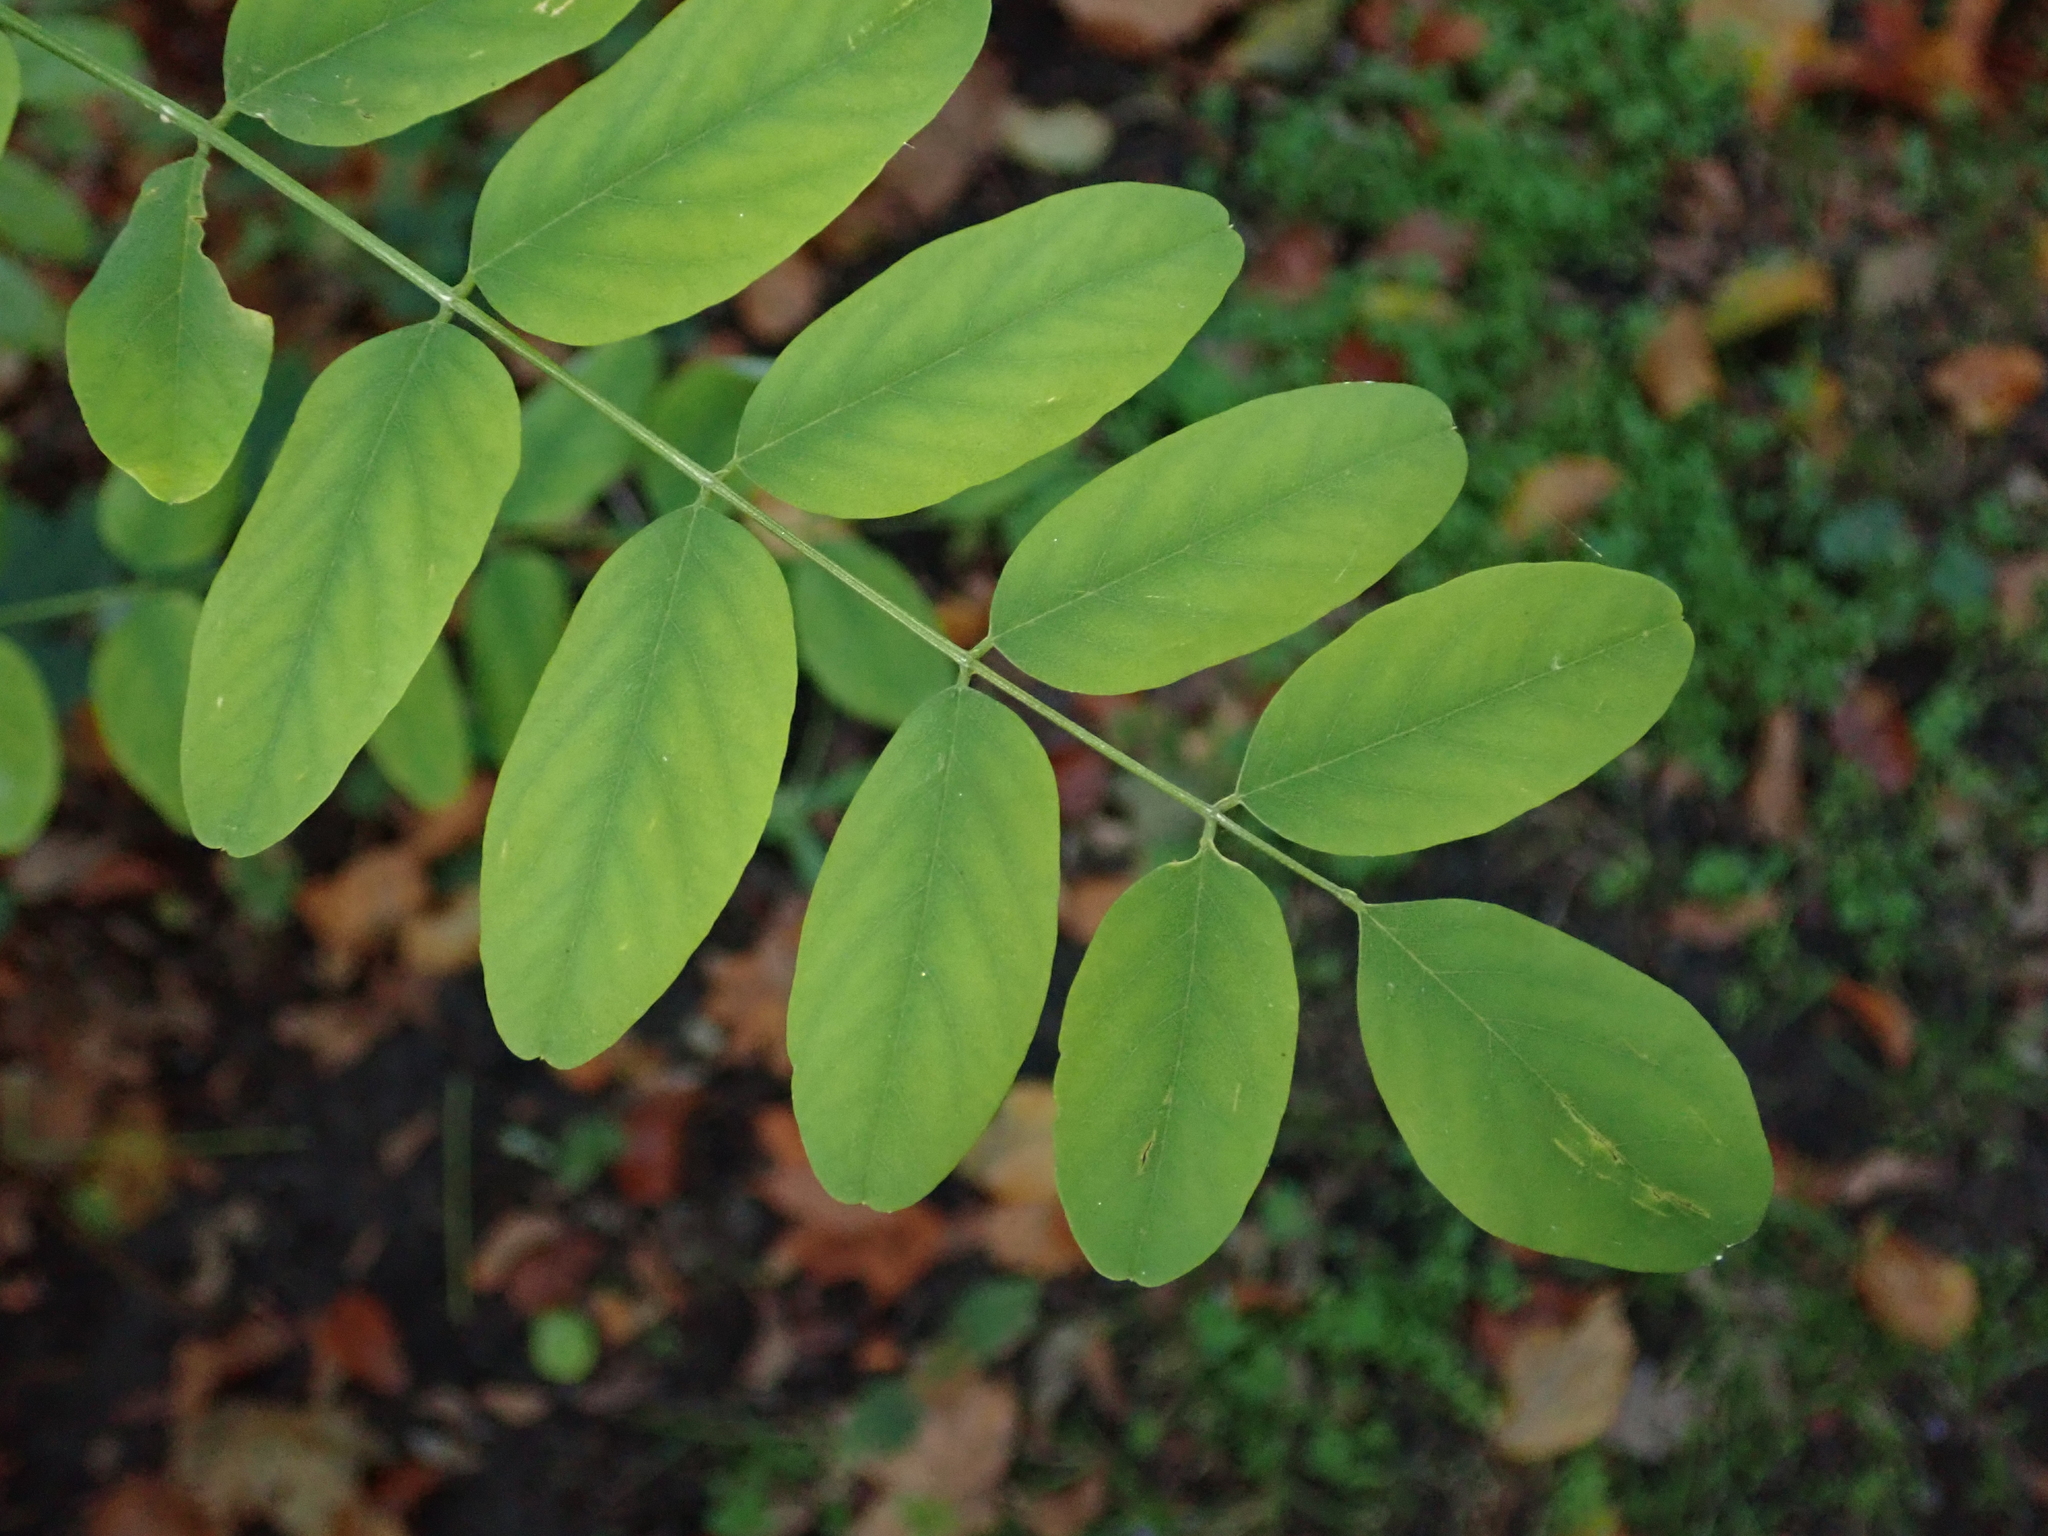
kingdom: Plantae
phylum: Tracheophyta
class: Magnoliopsida
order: Fabales
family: Fabaceae
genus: Robinia
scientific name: Robinia pseudoacacia
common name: Black locust
